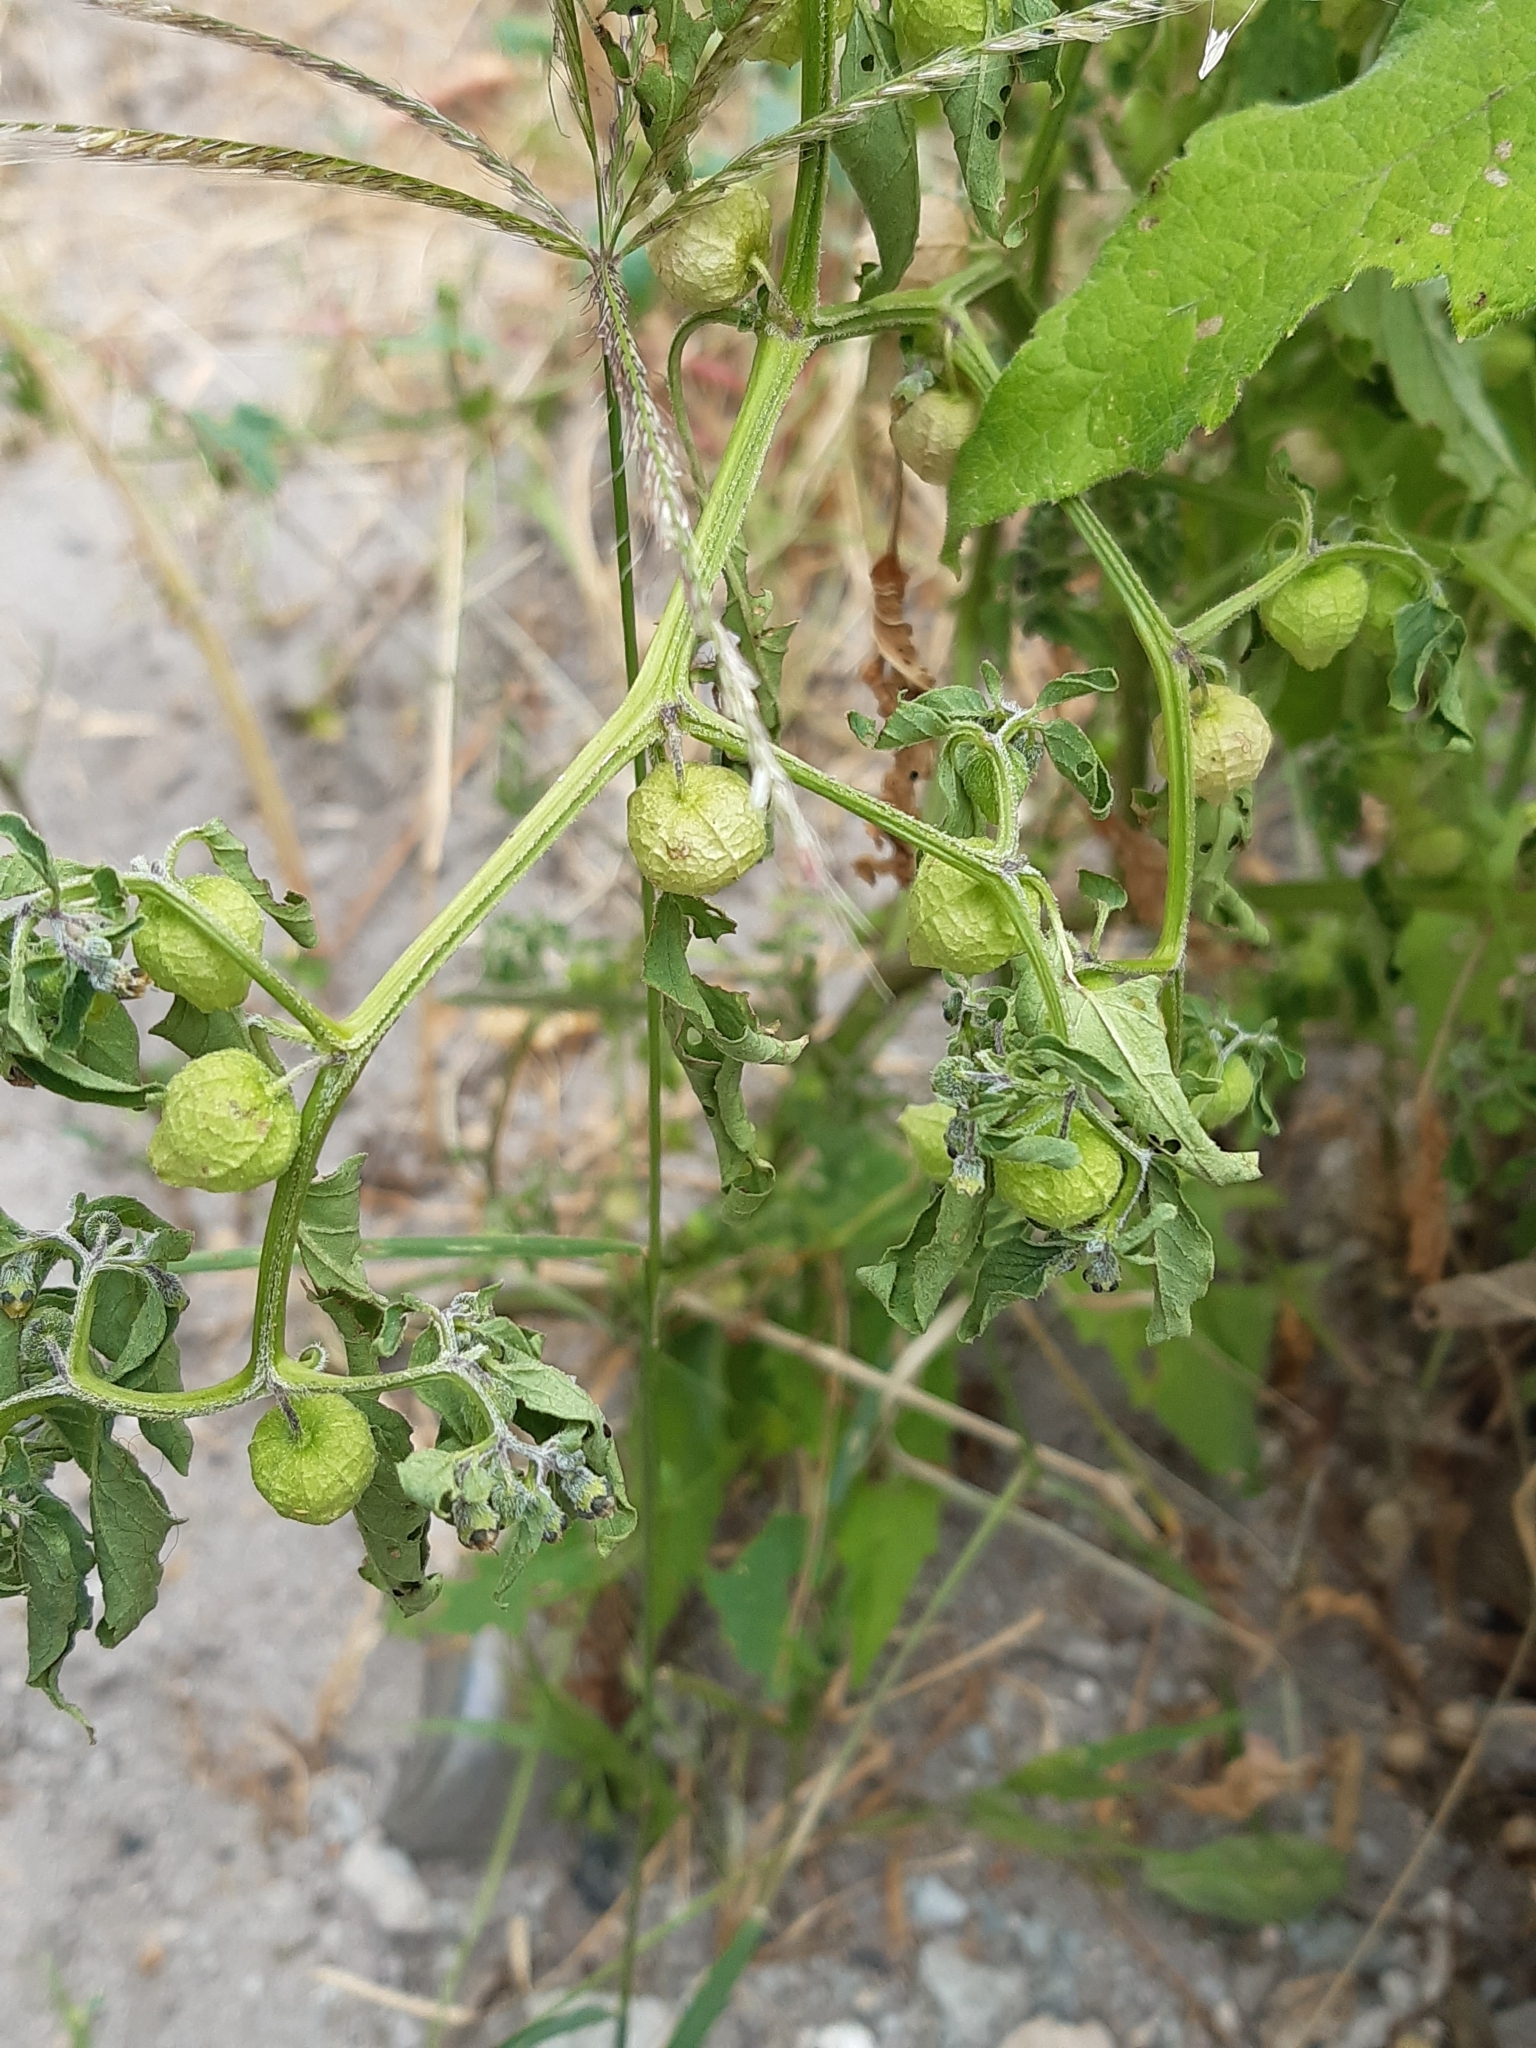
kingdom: Plantae
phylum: Tracheophyta
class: Magnoliopsida
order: Solanales
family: Solanaceae
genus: Physalis
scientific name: Physalis solanacea
